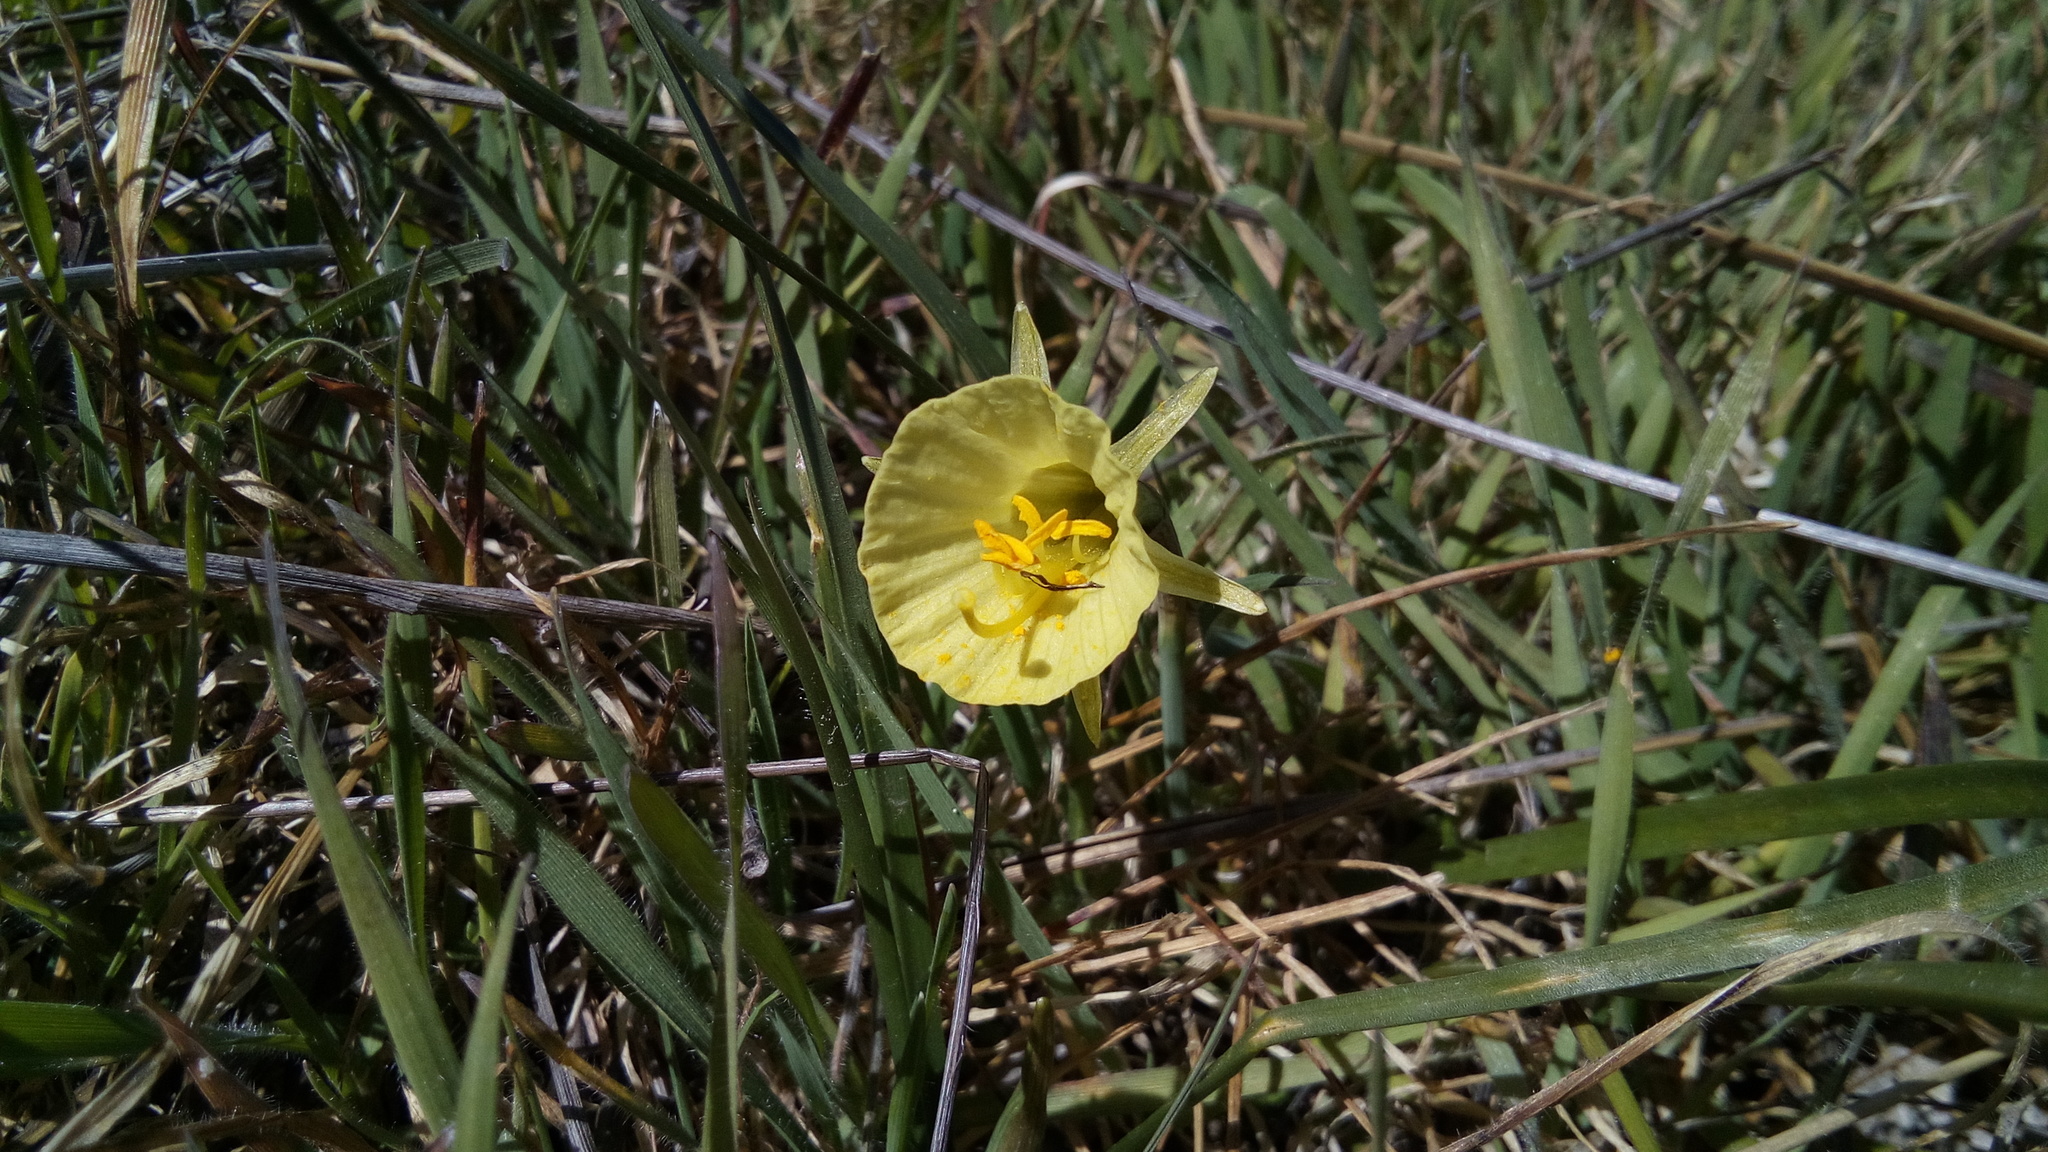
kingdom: Plantae
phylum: Tracheophyta
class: Liliopsida
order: Asparagales
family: Amaryllidaceae
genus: Narcissus
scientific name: Narcissus bulbocodium
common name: Hoop-petticoat daffodil
